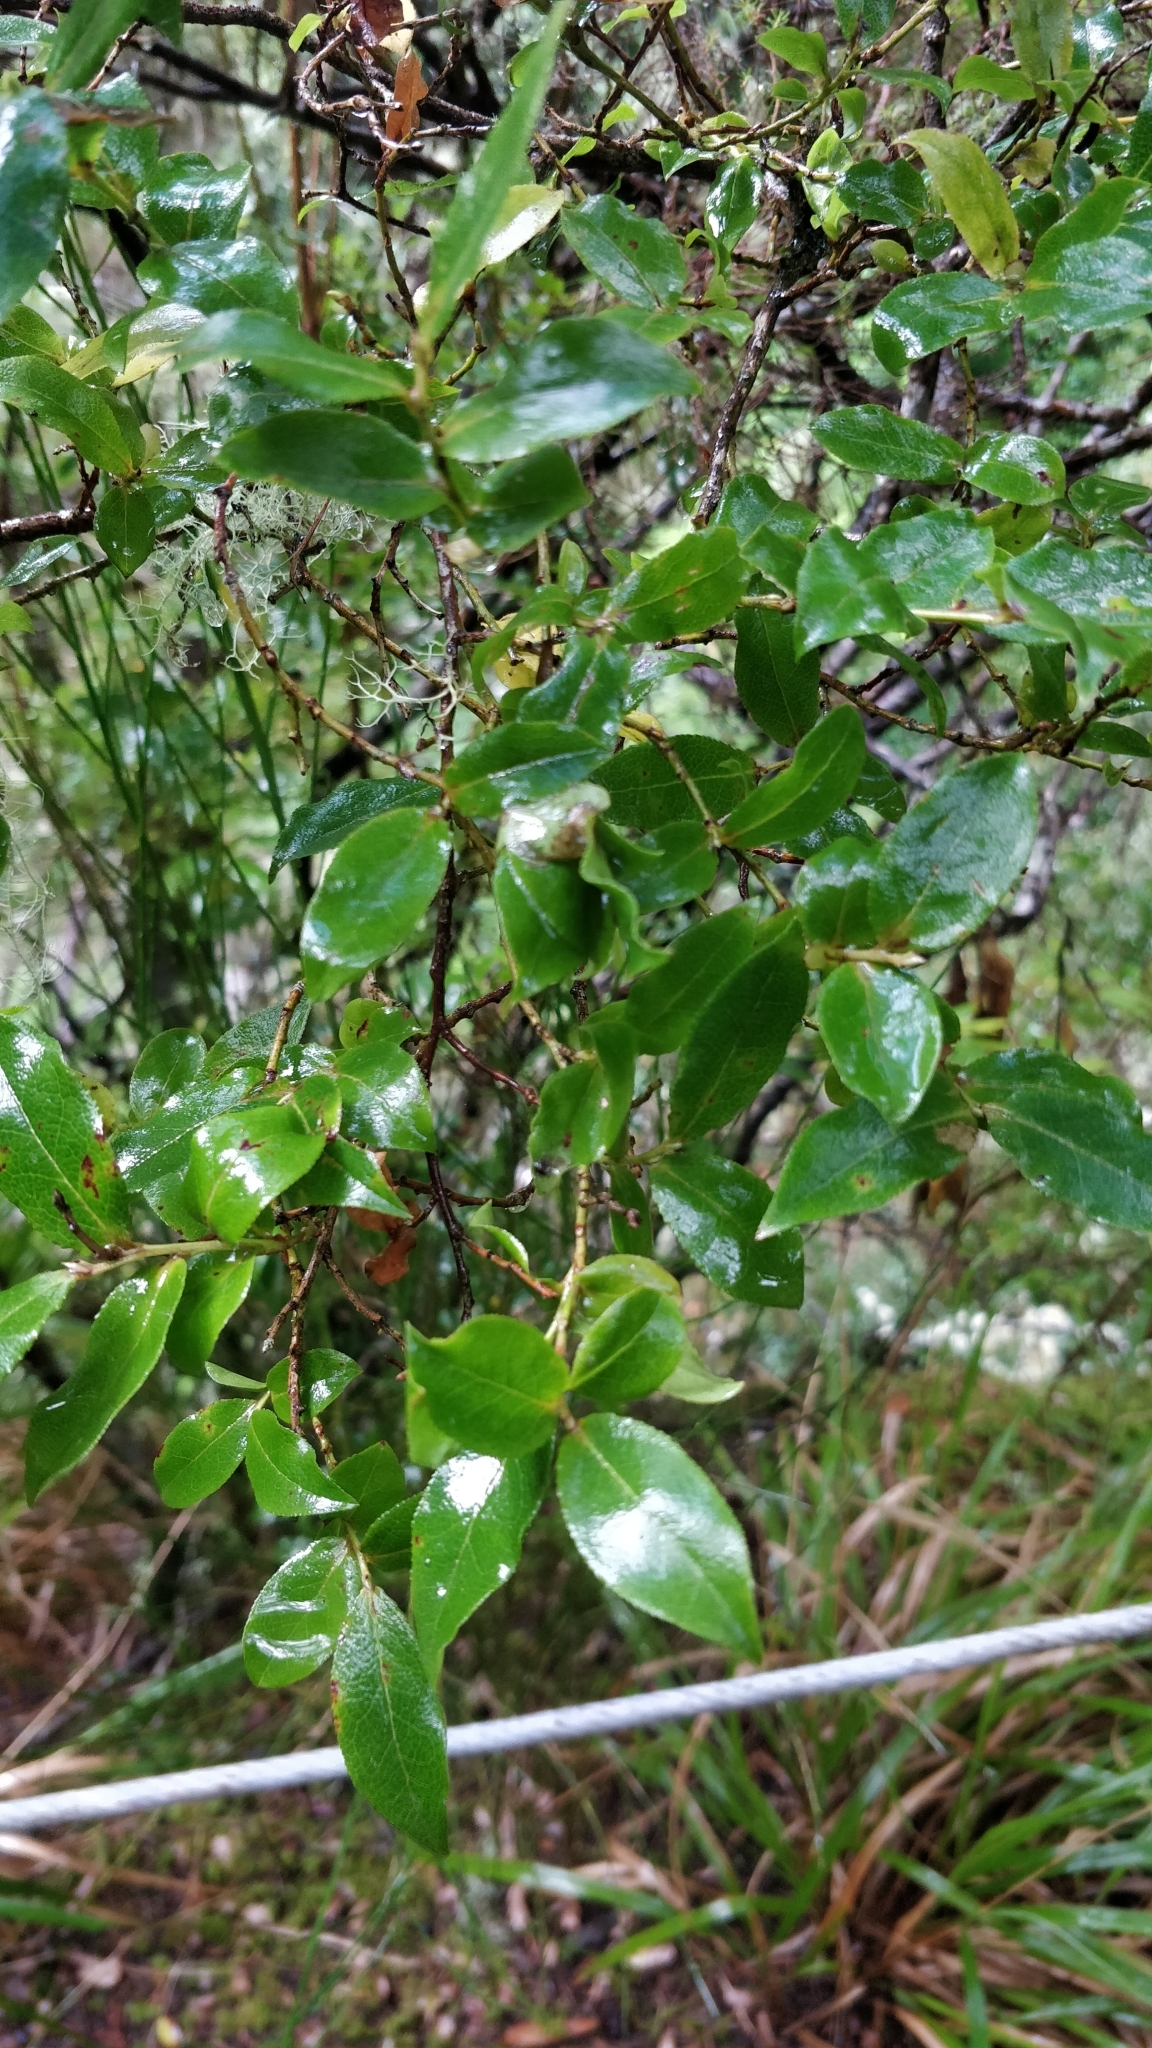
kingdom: Plantae
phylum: Tracheophyta
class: Magnoliopsida
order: Ericales
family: Ericaceae
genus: Vaccinium
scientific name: Vaccinium padifolium
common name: Madeiran blueberry
